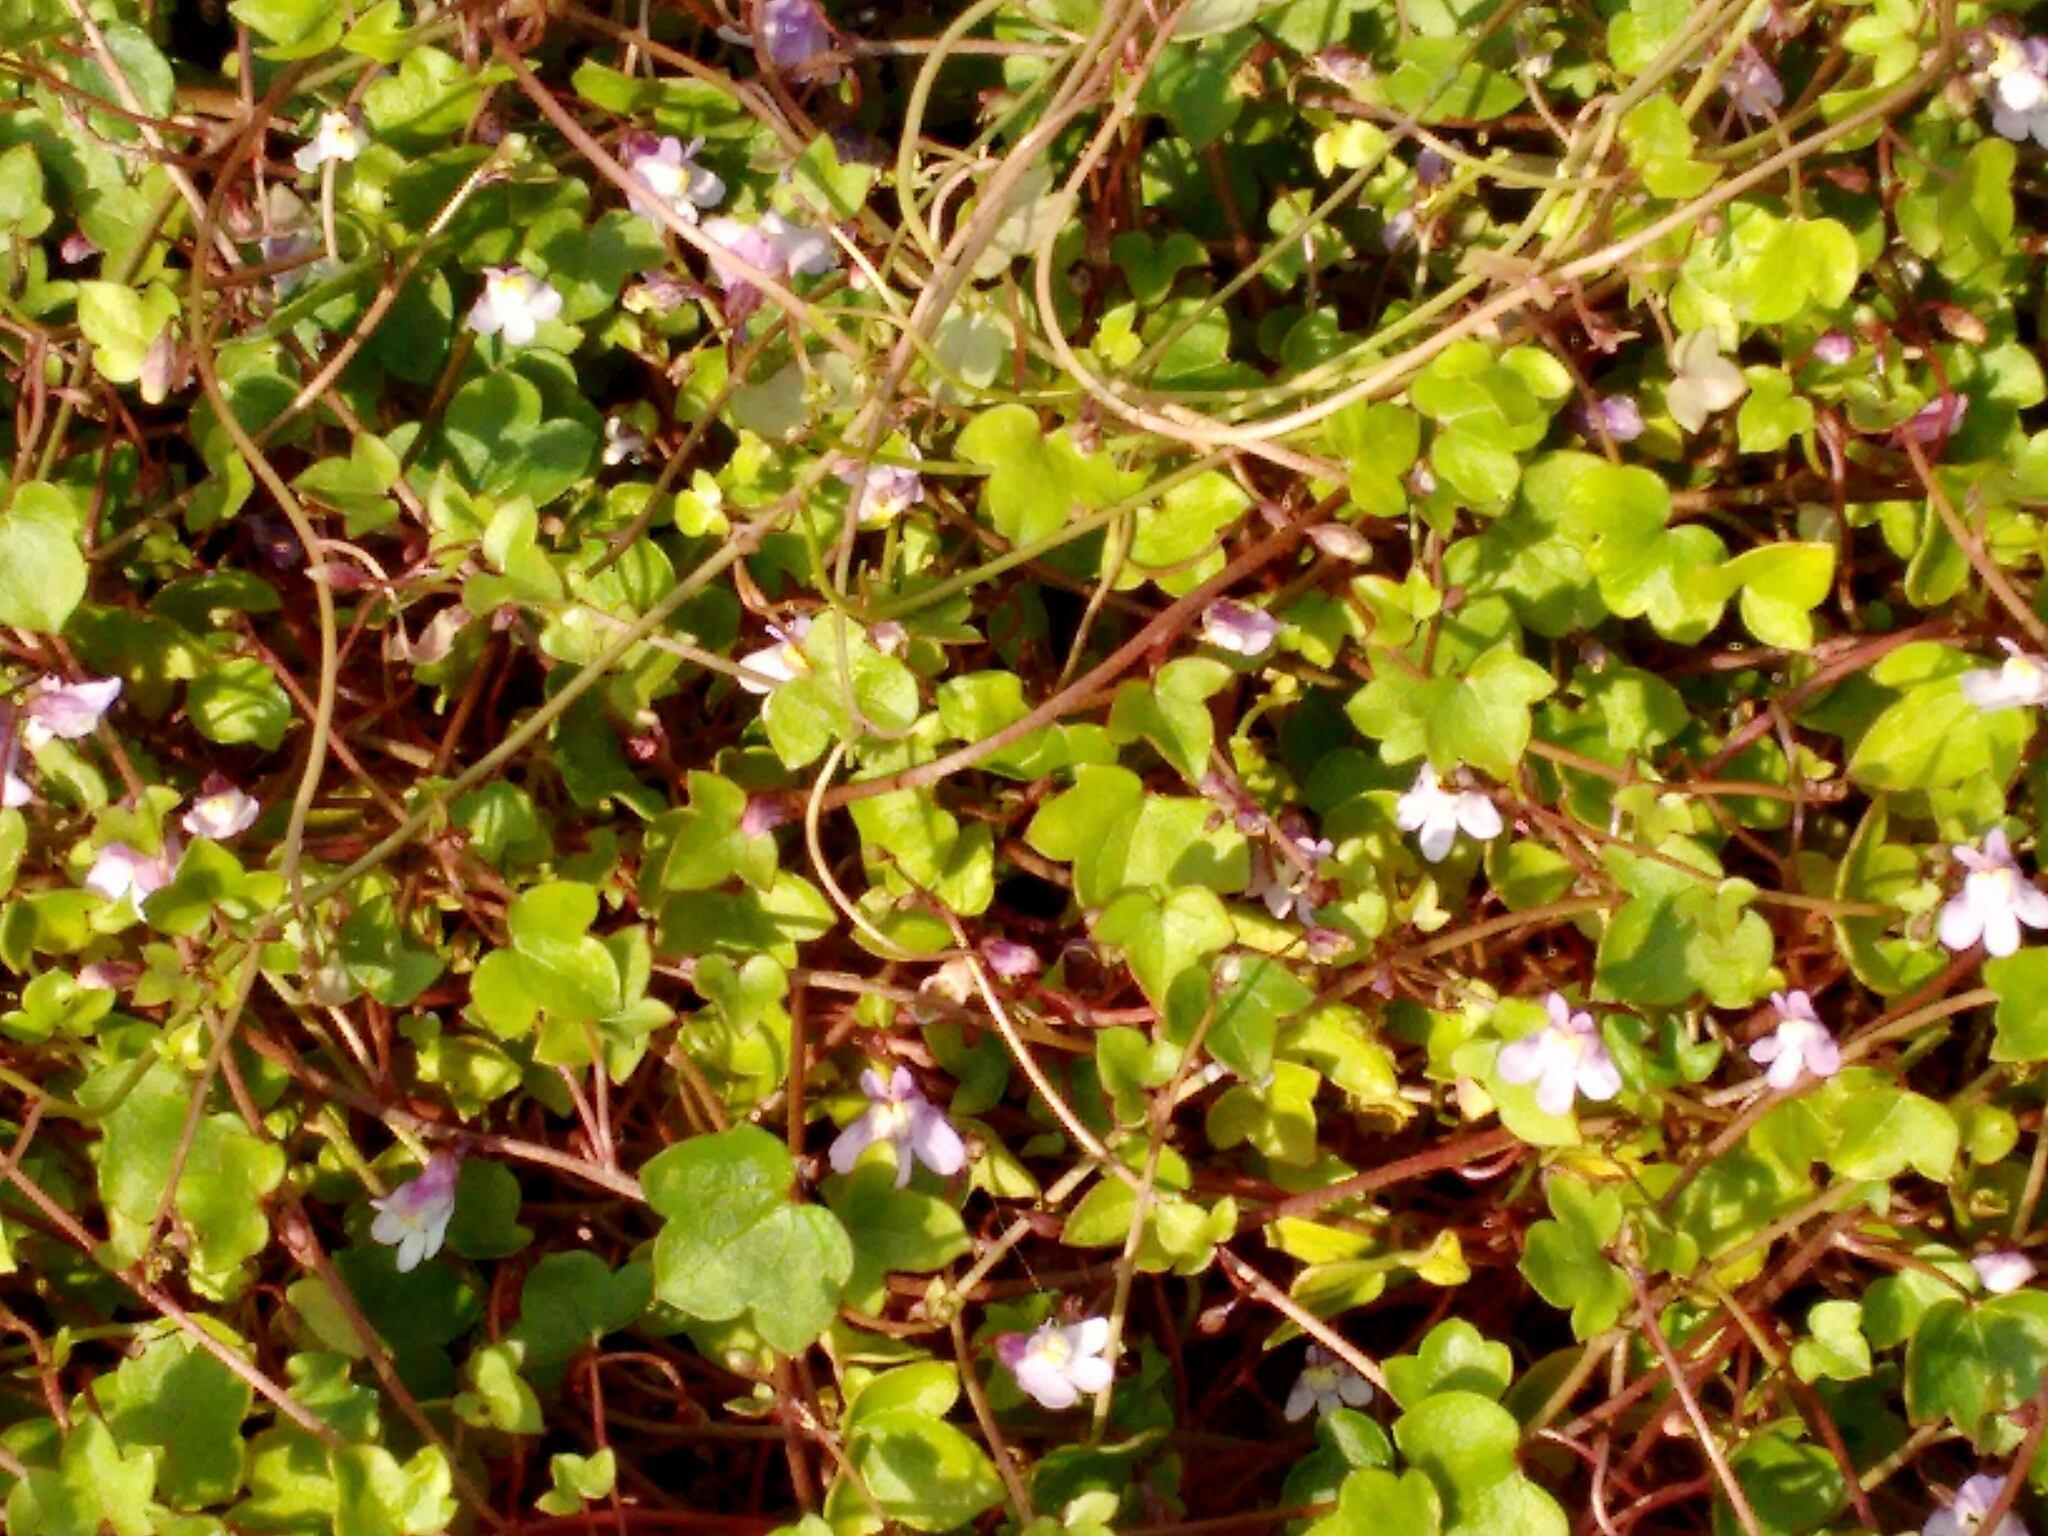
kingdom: Plantae
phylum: Tracheophyta
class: Magnoliopsida
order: Lamiales
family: Plantaginaceae
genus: Cymbalaria
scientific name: Cymbalaria muralis
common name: Ivy-leaved toadflax
